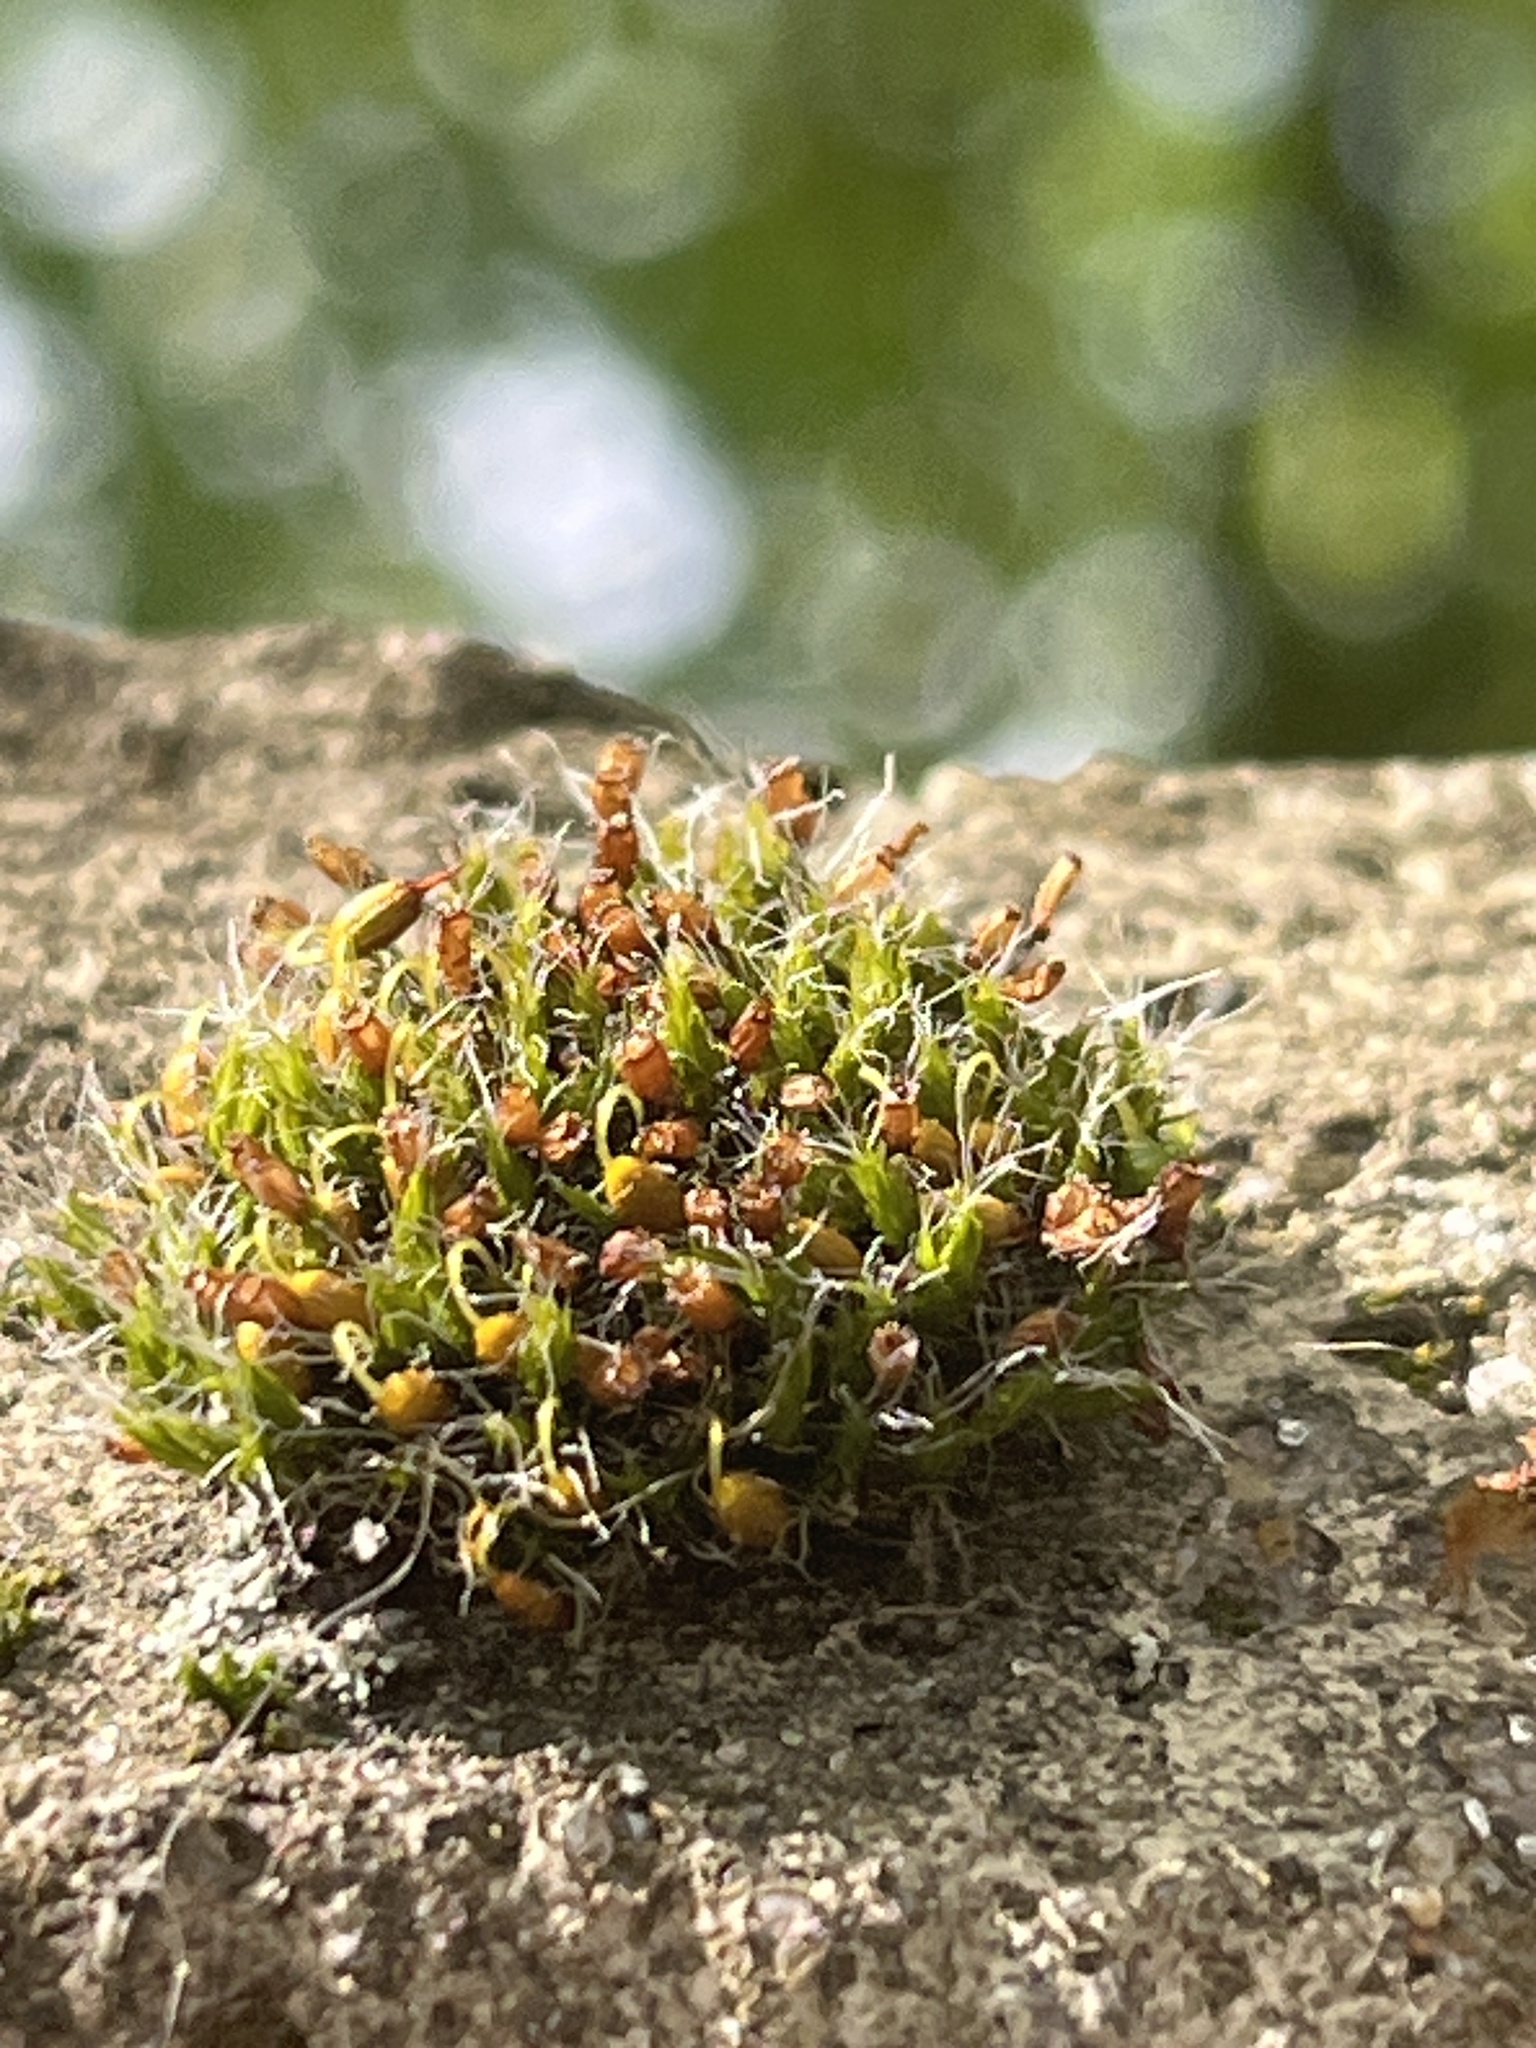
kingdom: Plantae
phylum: Bryophyta
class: Bryopsida
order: Grimmiales
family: Grimmiaceae
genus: Grimmia
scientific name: Grimmia pulvinata
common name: Grey-cushioned grimmia
